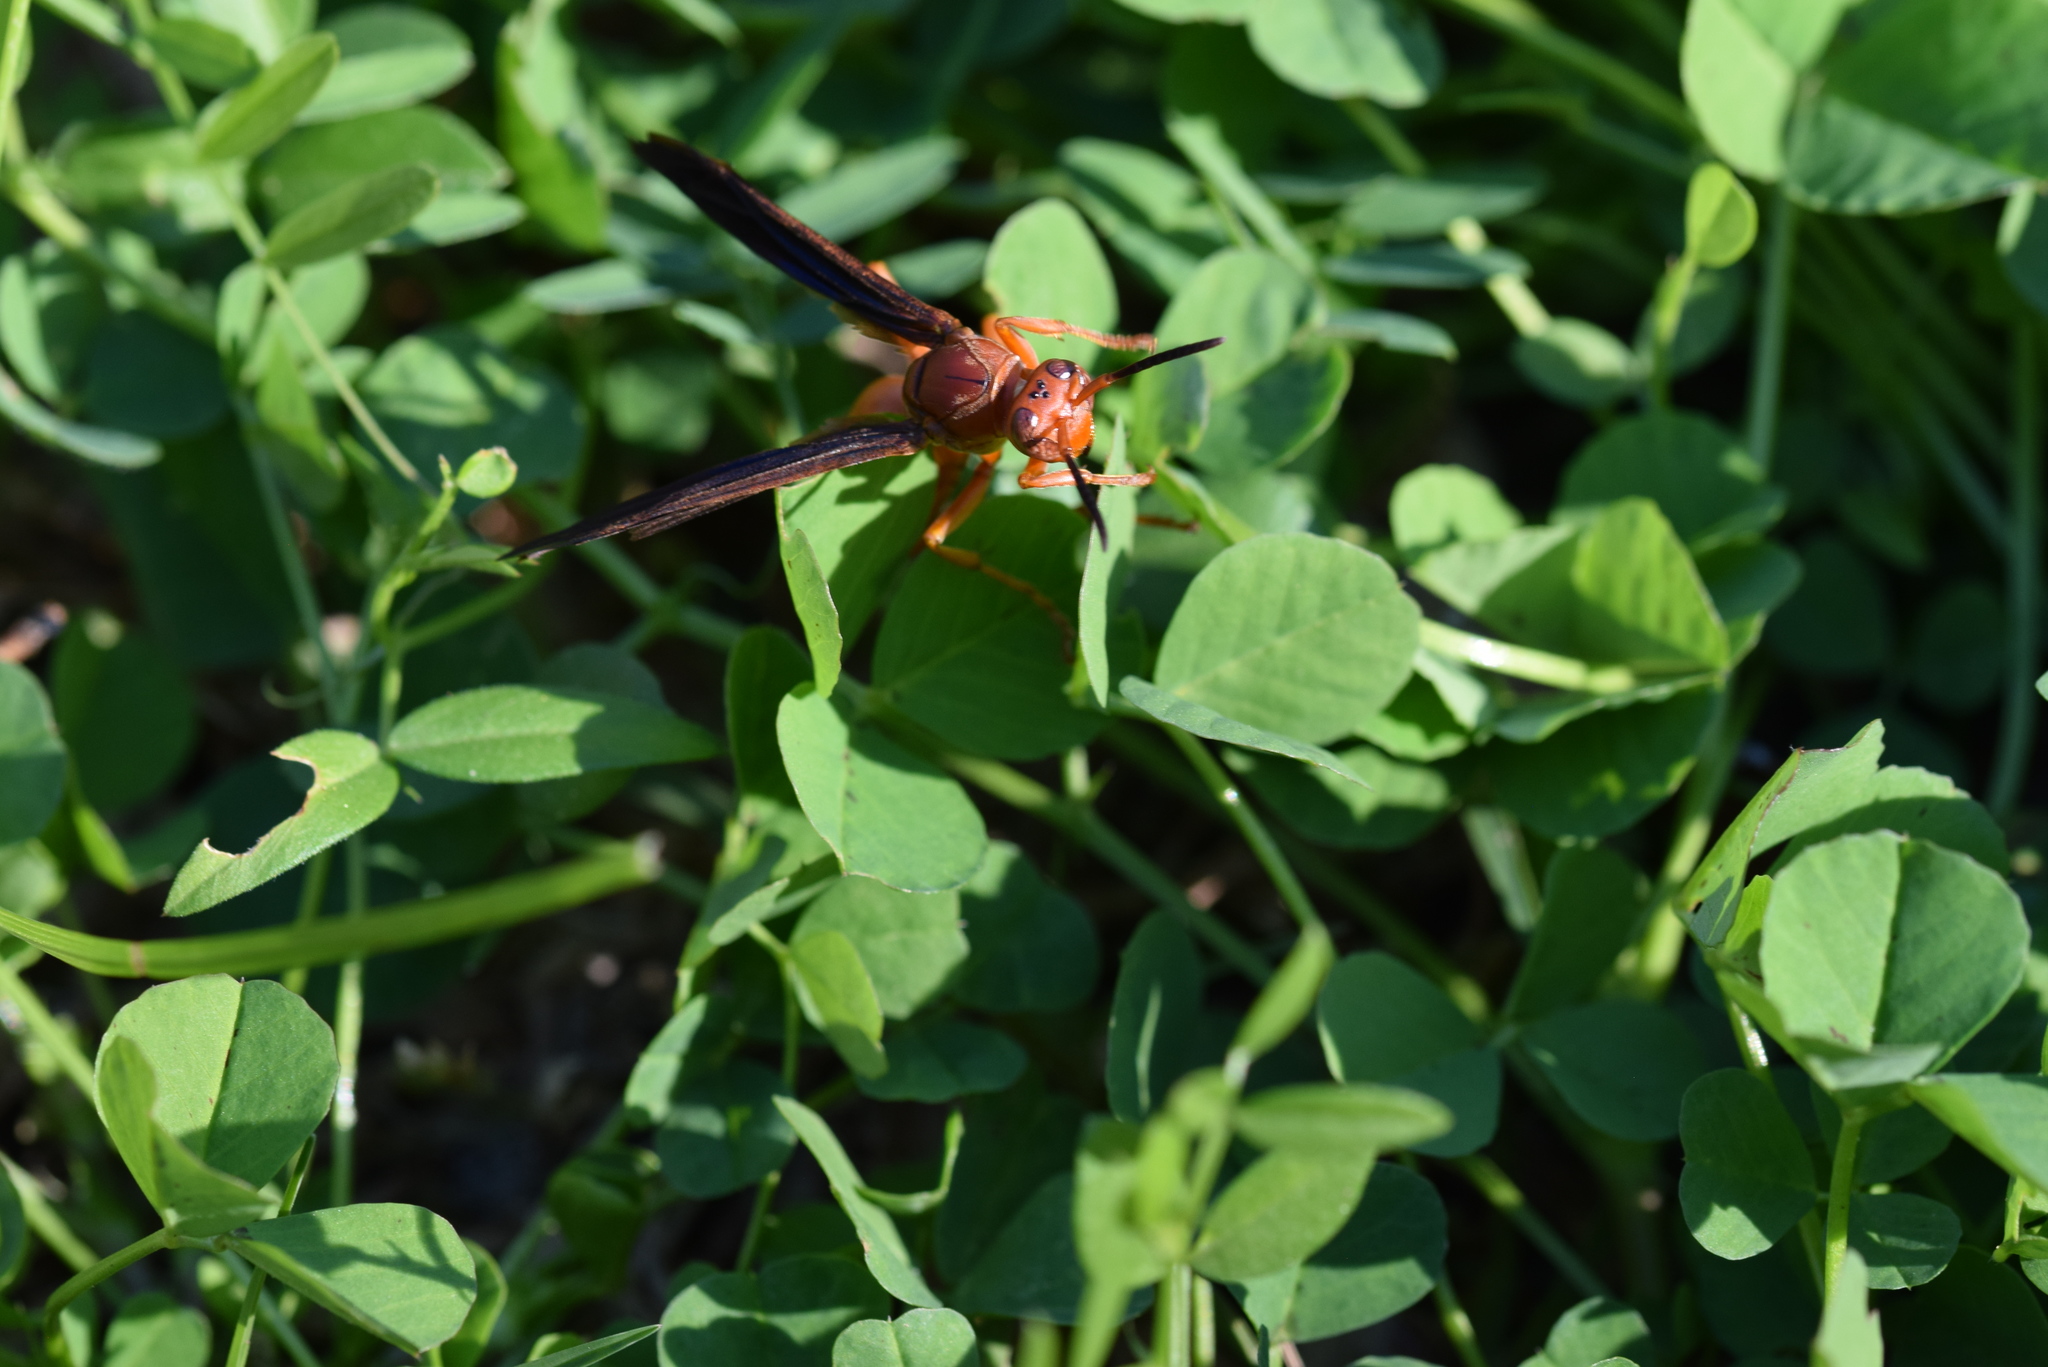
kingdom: Animalia
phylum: Arthropoda
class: Insecta
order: Hymenoptera
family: Eumenidae
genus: Polistes
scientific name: Polistes carolina
